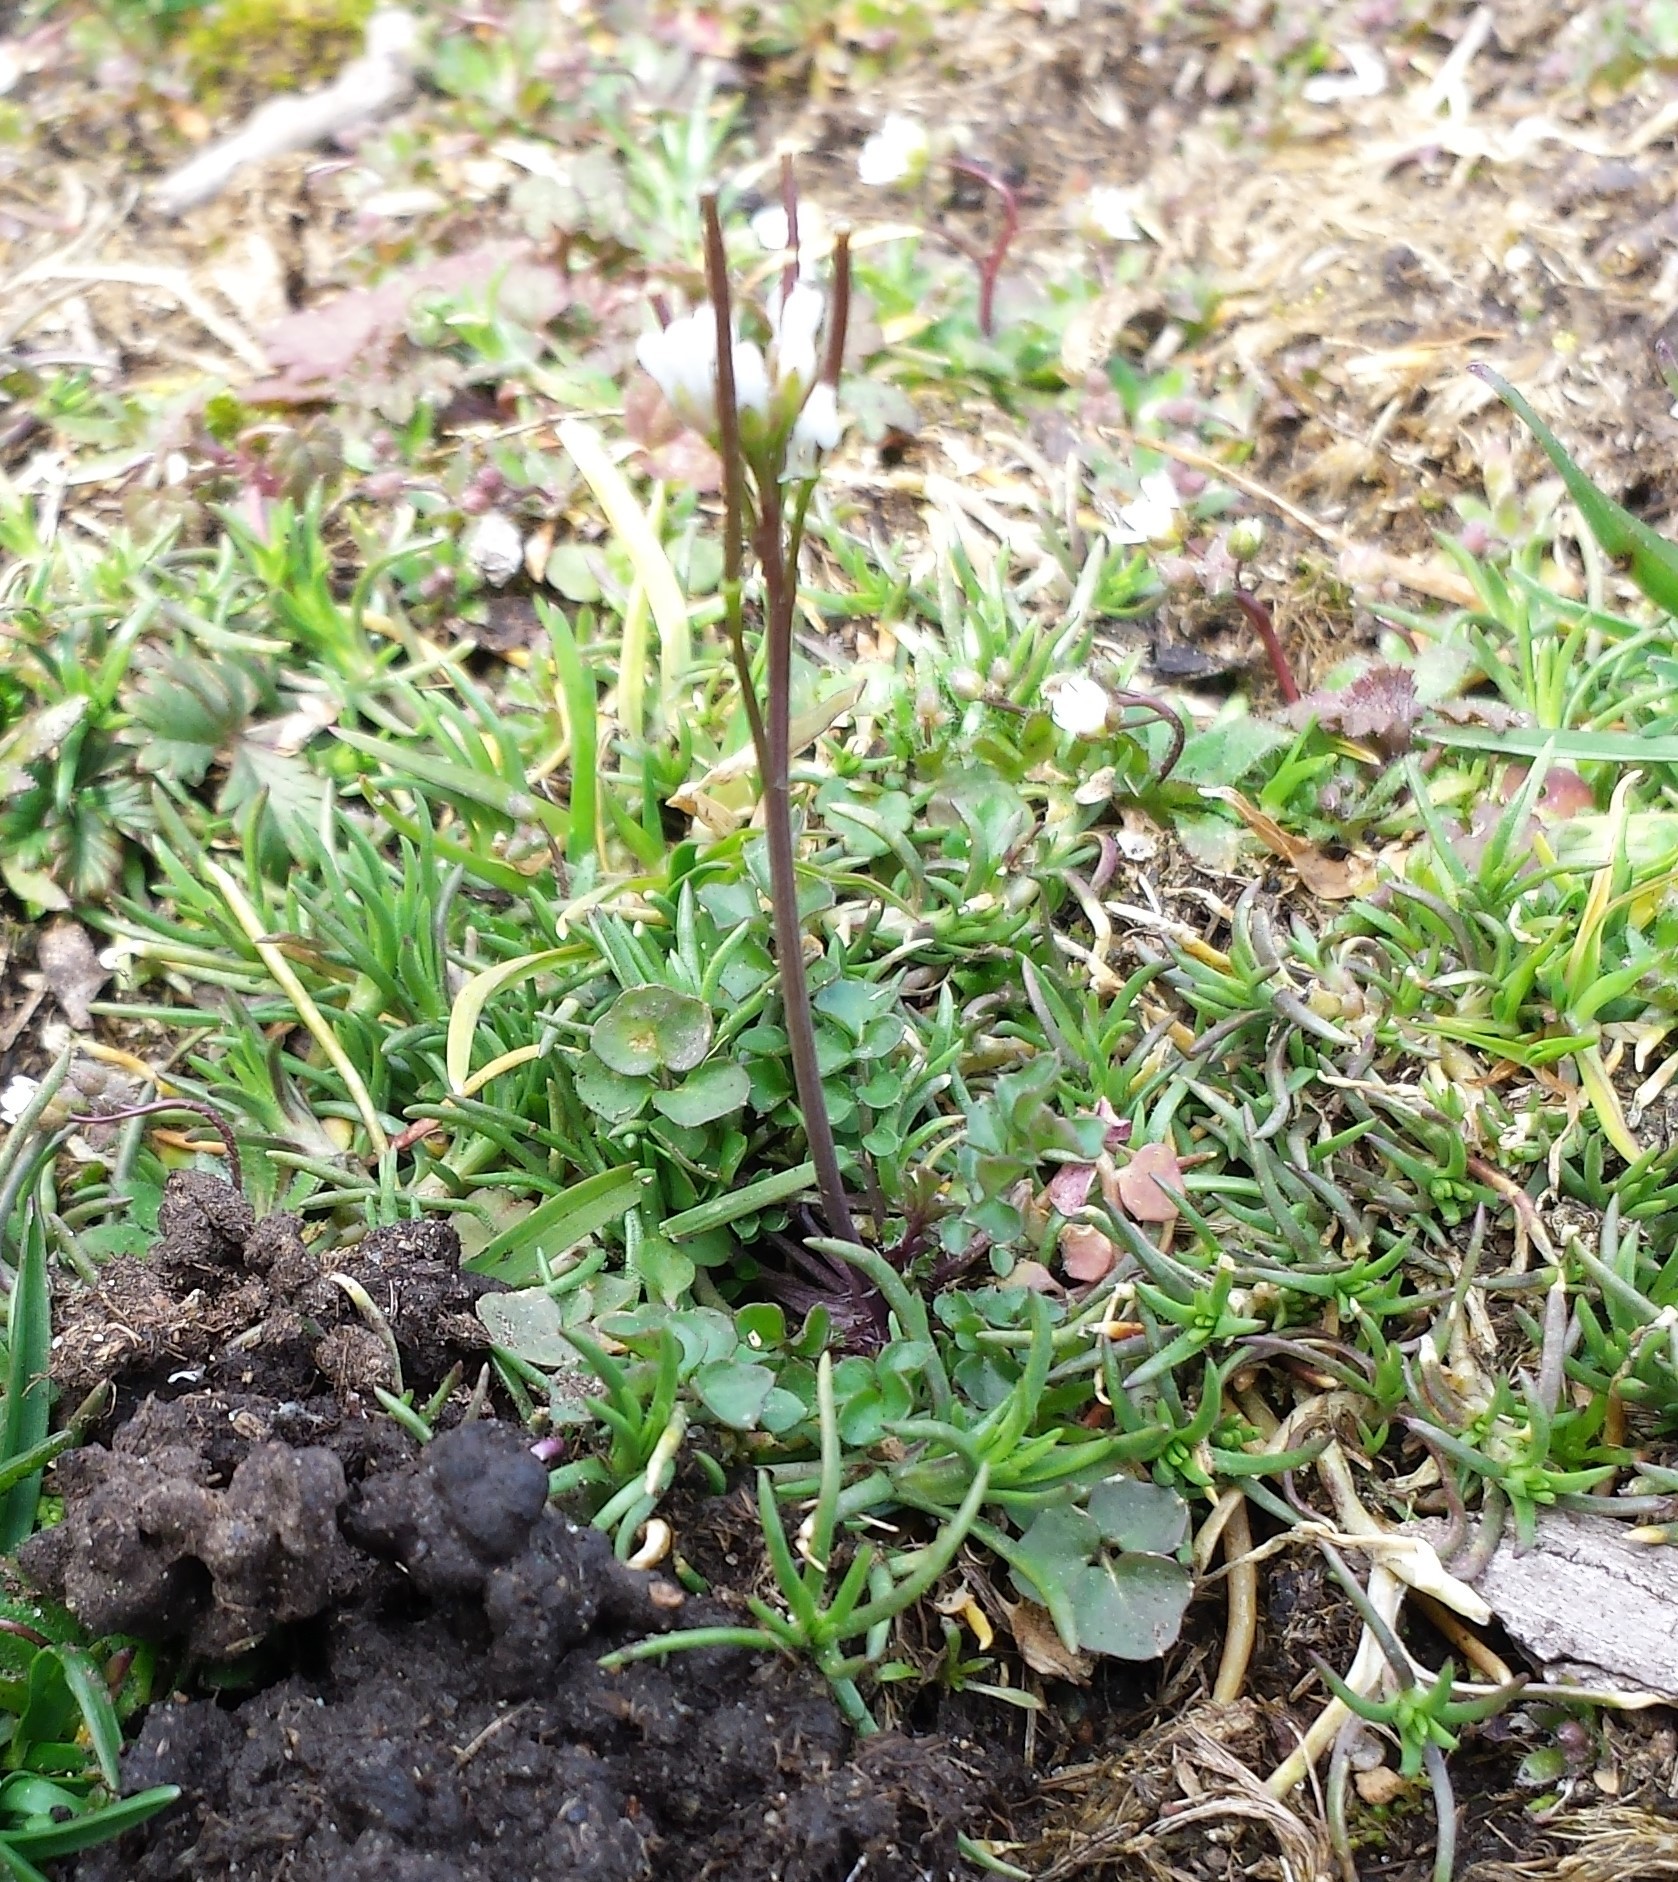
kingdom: Plantae
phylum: Tracheophyta
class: Magnoliopsida
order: Brassicales
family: Brassicaceae
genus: Cardamine
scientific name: Cardamine hirsuta
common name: Hairy bittercress
